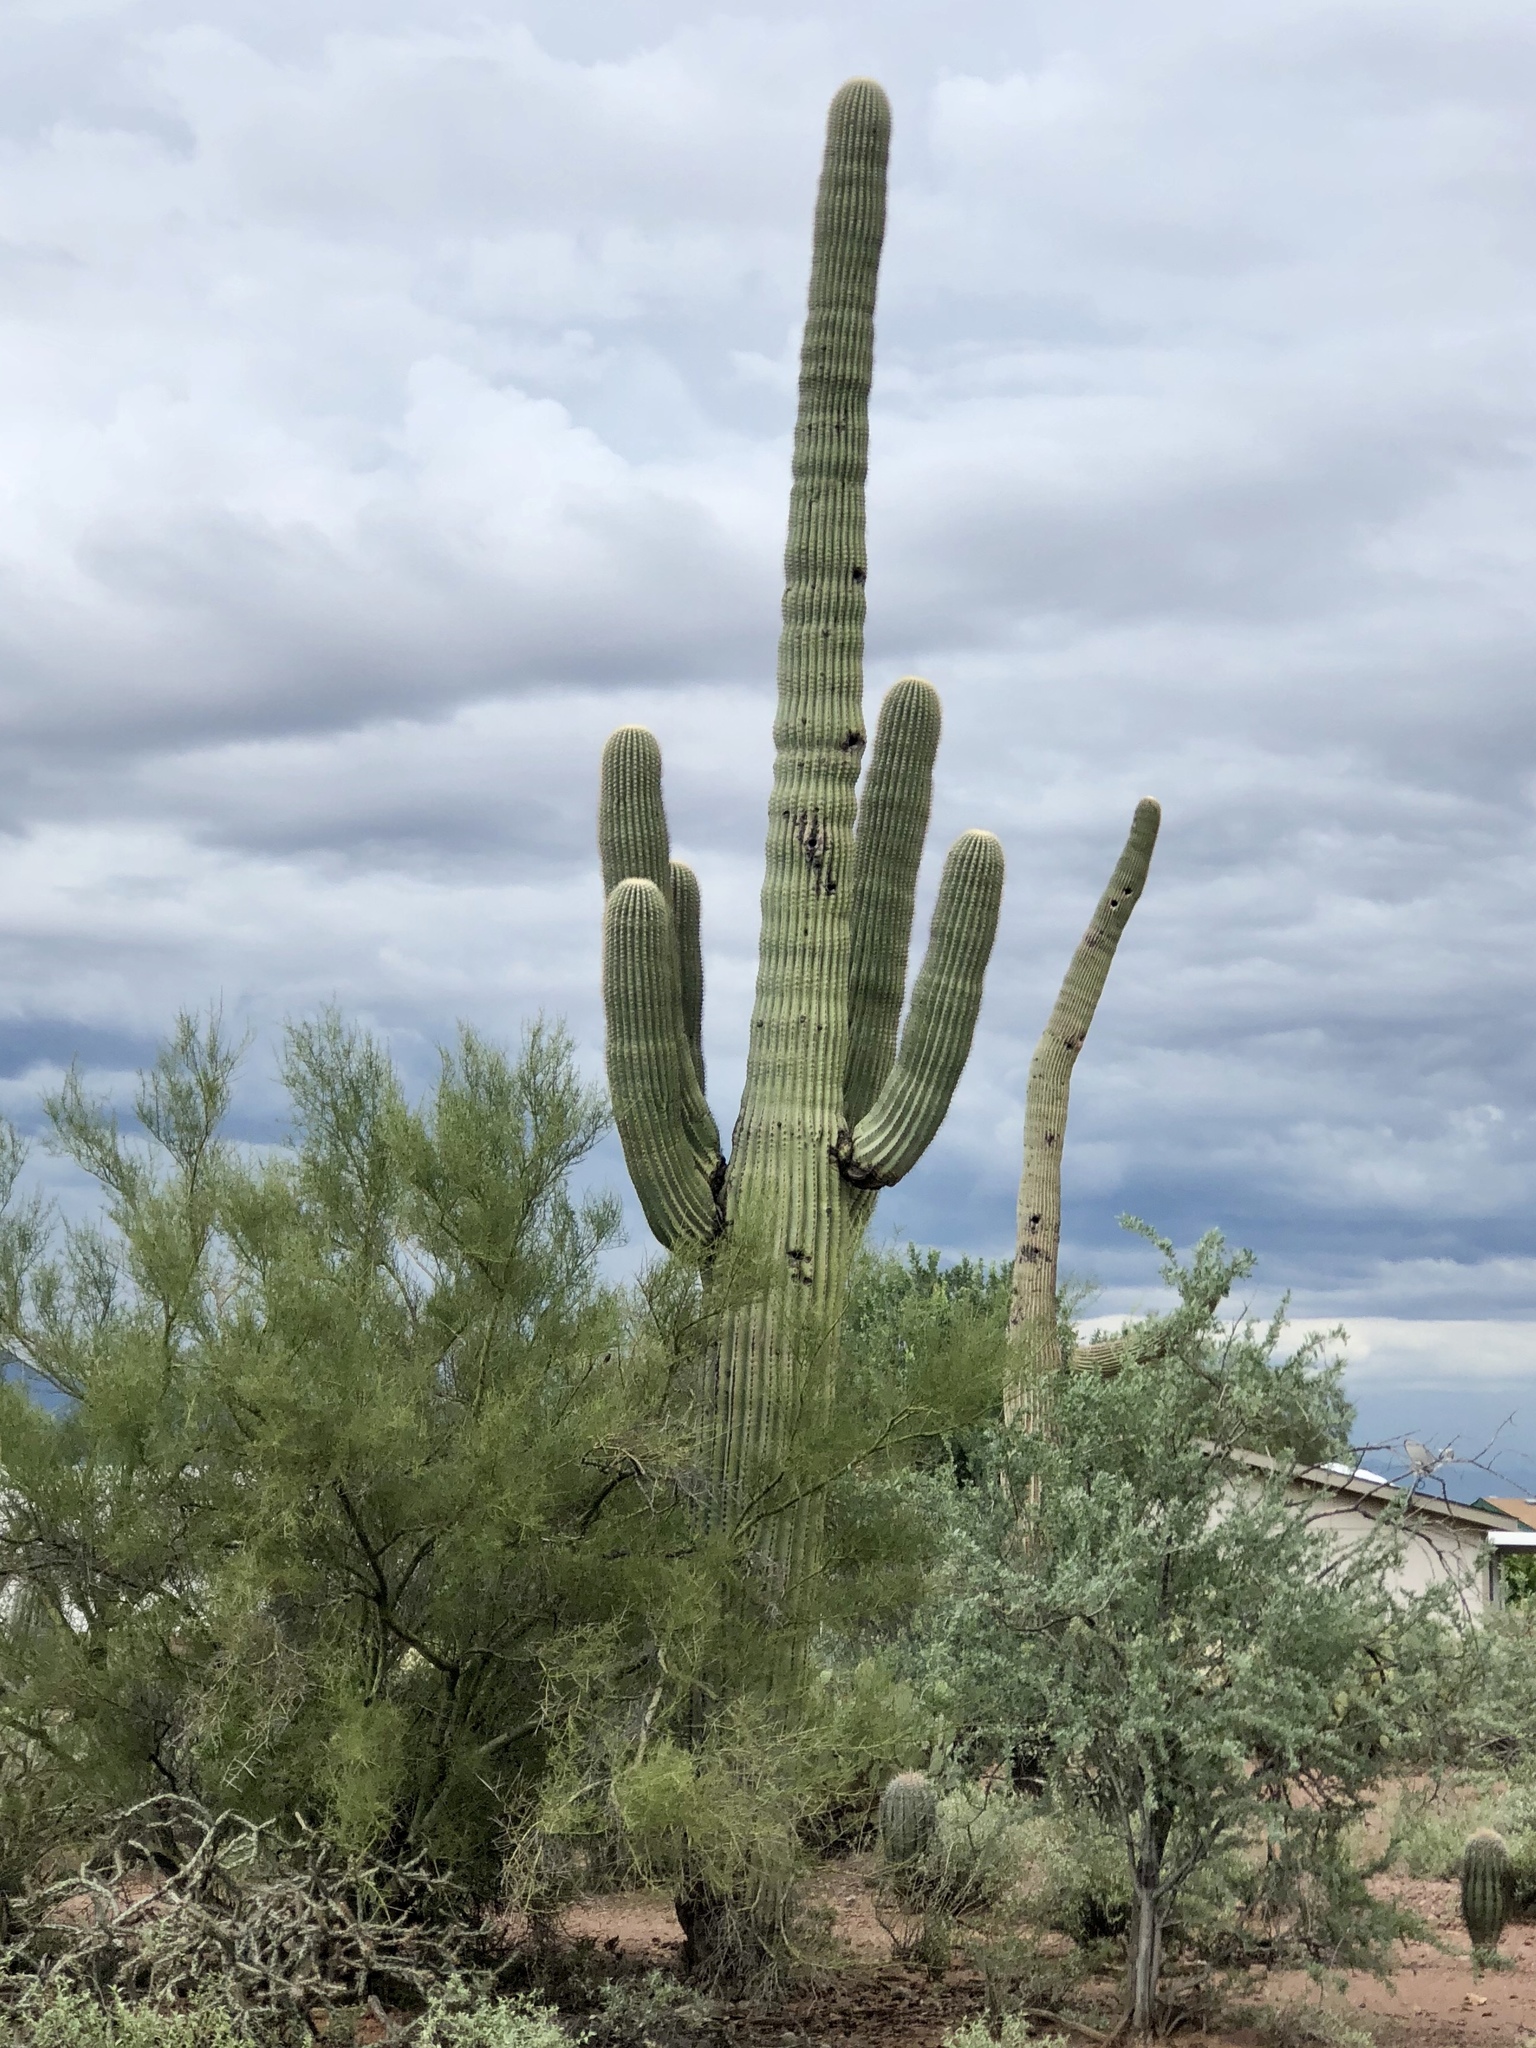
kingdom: Plantae
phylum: Tracheophyta
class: Magnoliopsida
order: Caryophyllales
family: Cactaceae
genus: Carnegiea
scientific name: Carnegiea gigantea
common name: Saguaro
